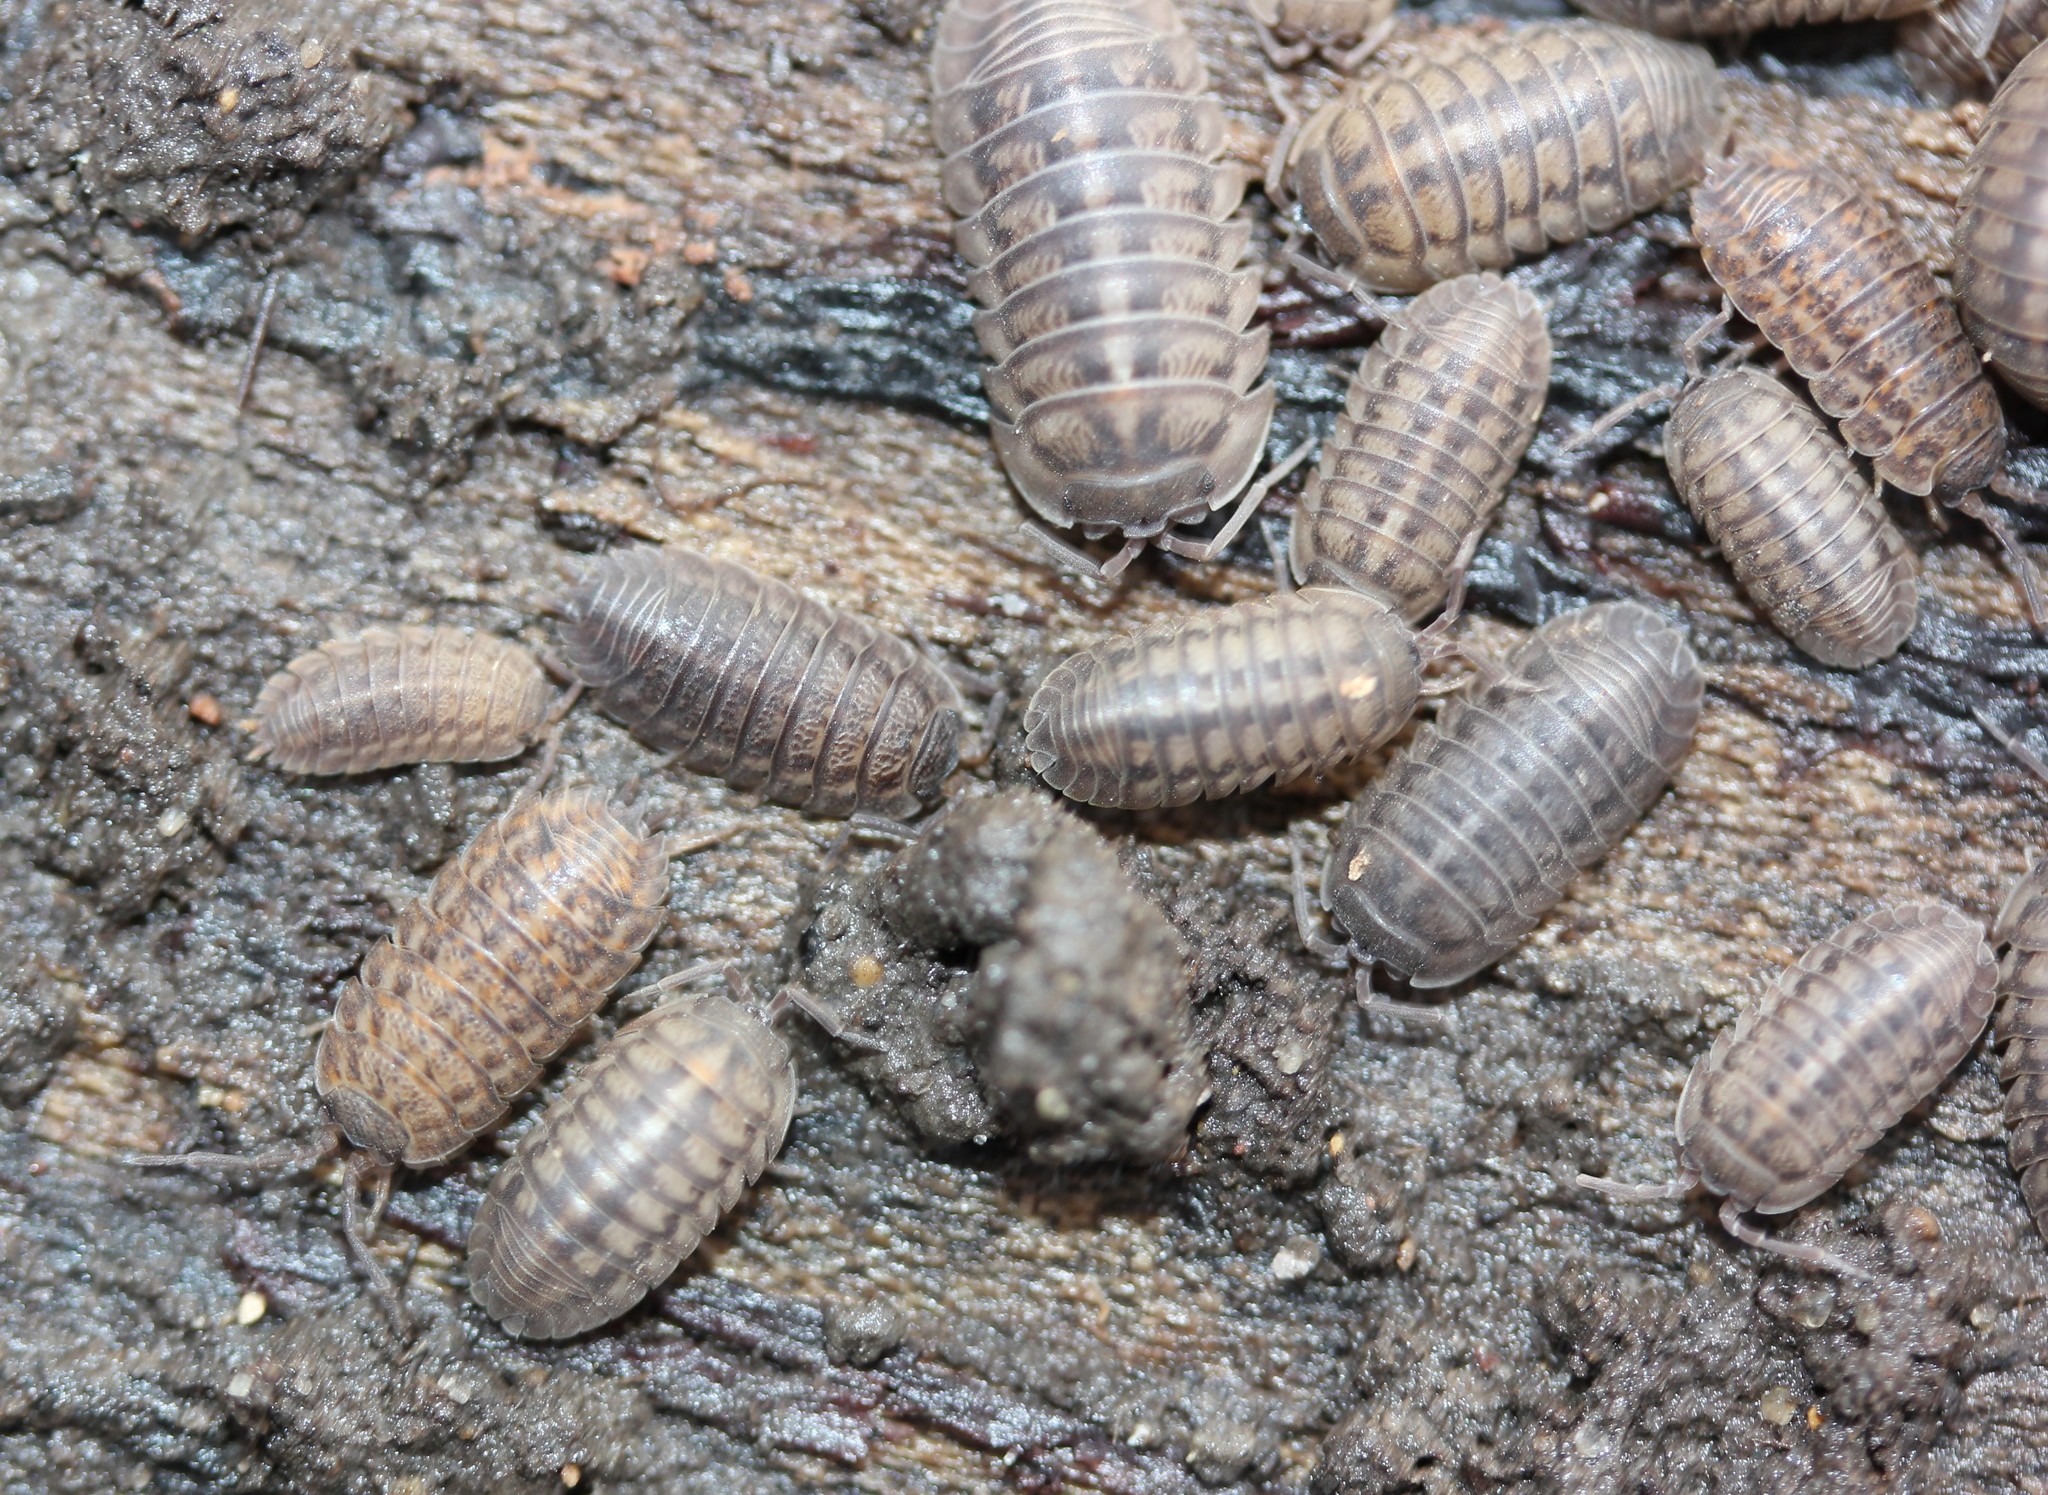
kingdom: Animalia
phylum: Arthropoda
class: Malacostraca
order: Isopoda
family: Armadillidiidae
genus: Armadillidium
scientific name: Armadillidium nasatum
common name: Isopod
